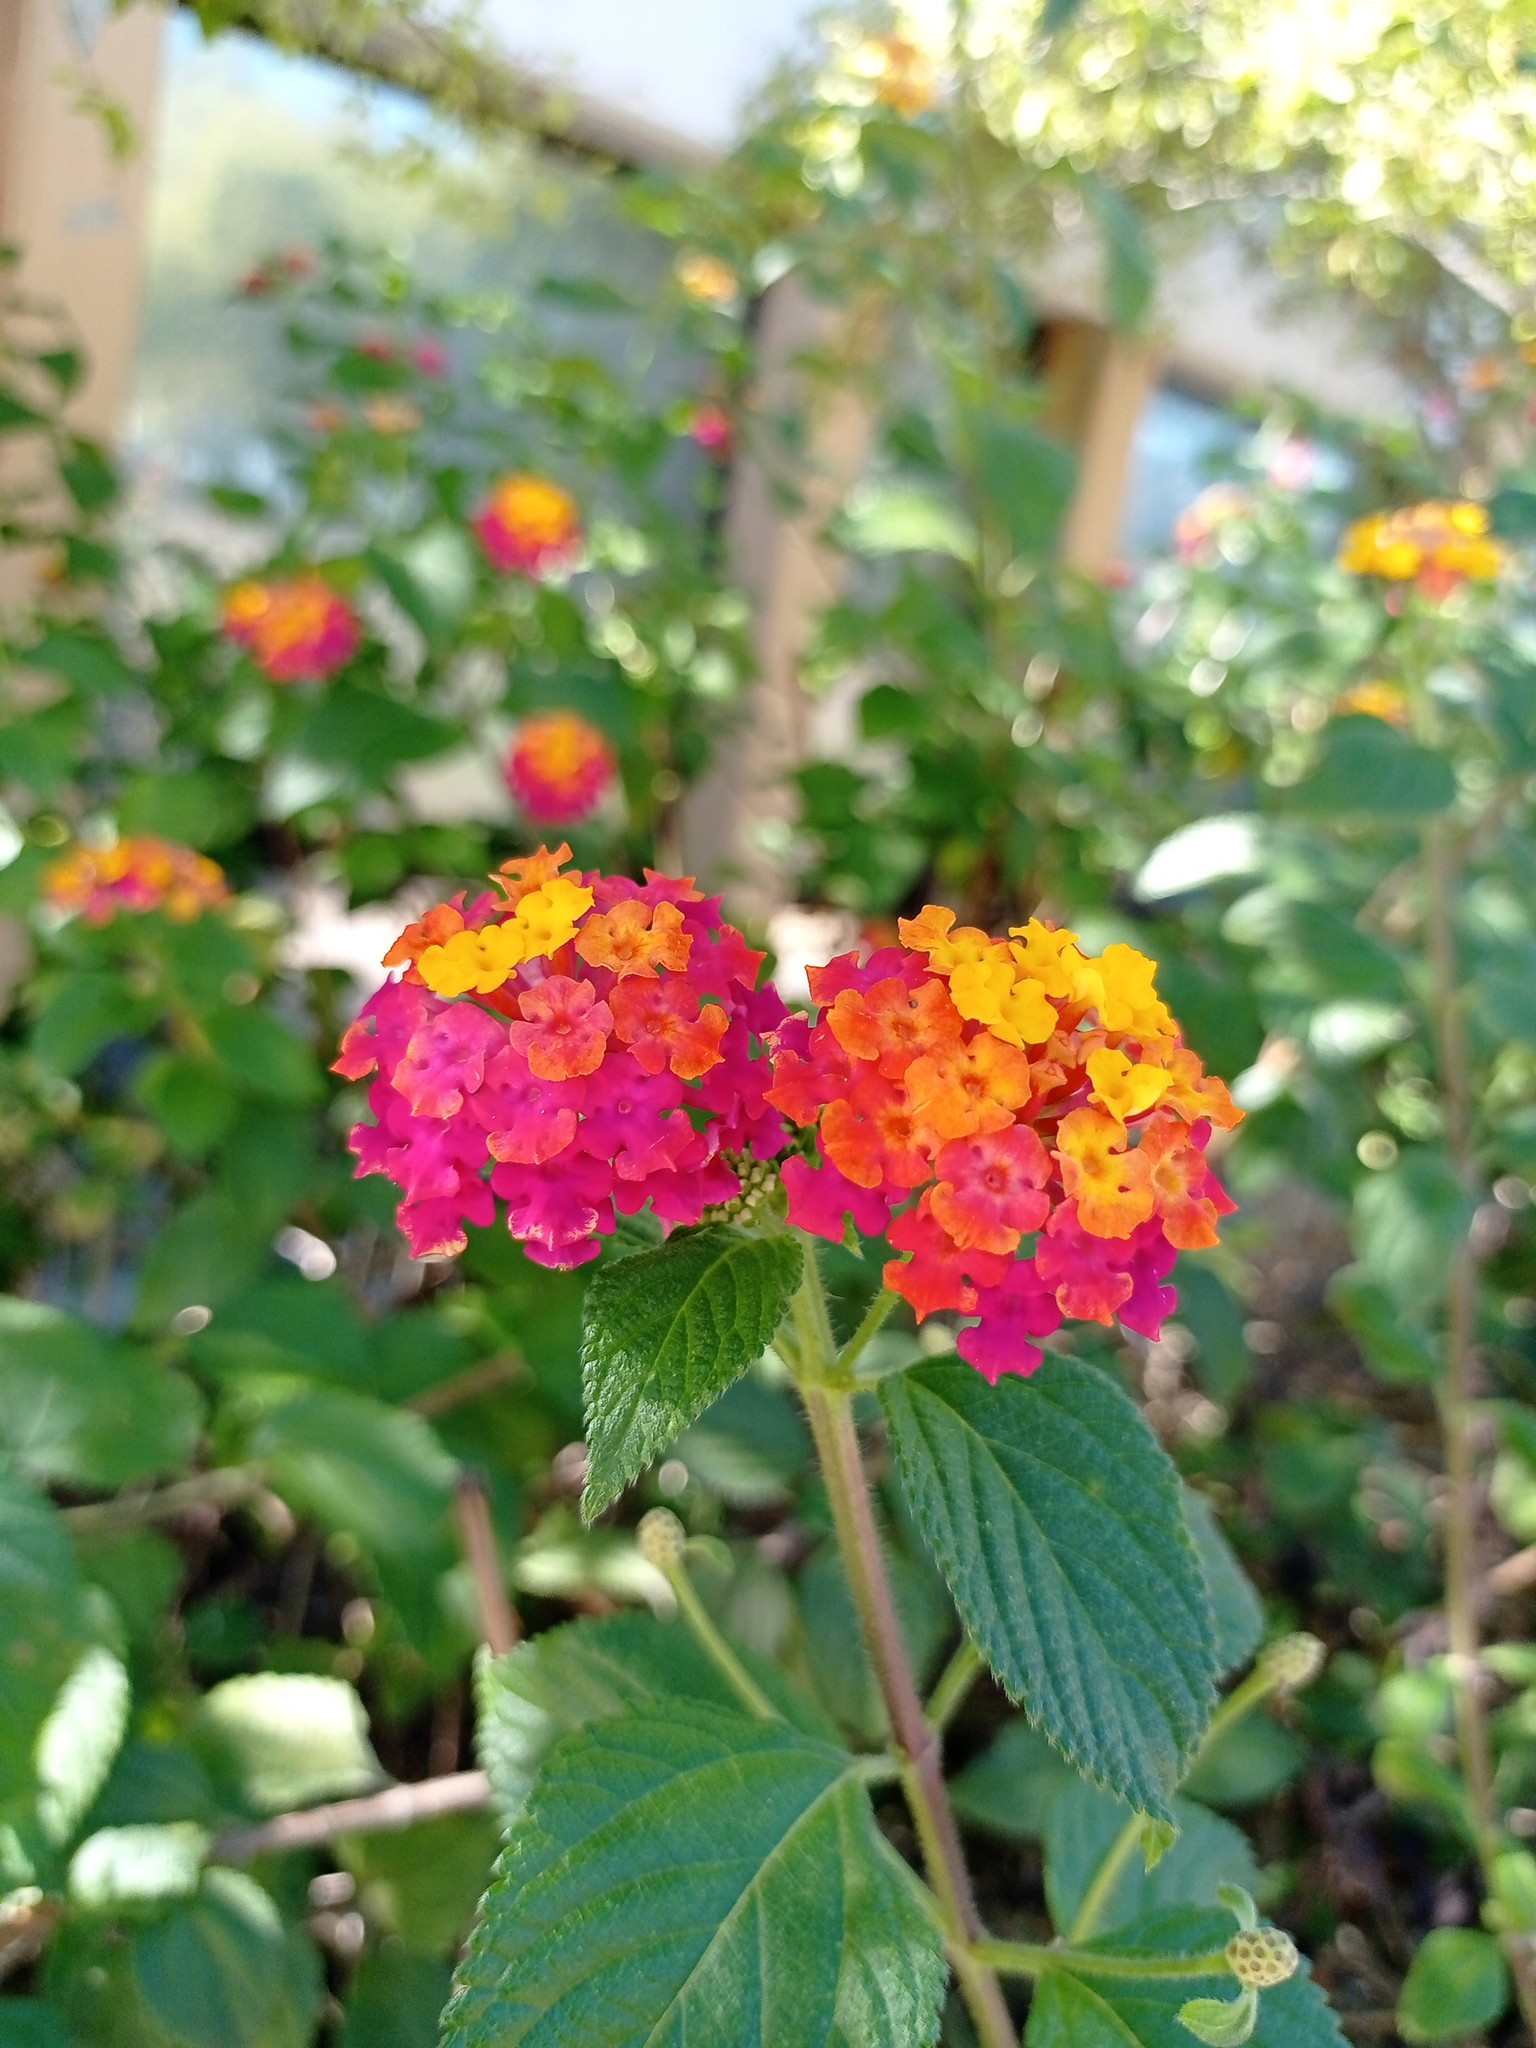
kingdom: Plantae
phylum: Tracheophyta
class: Magnoliopsida
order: Lamiales
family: Verbenaceae
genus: Lantana
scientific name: Lantana camara
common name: Lantana
